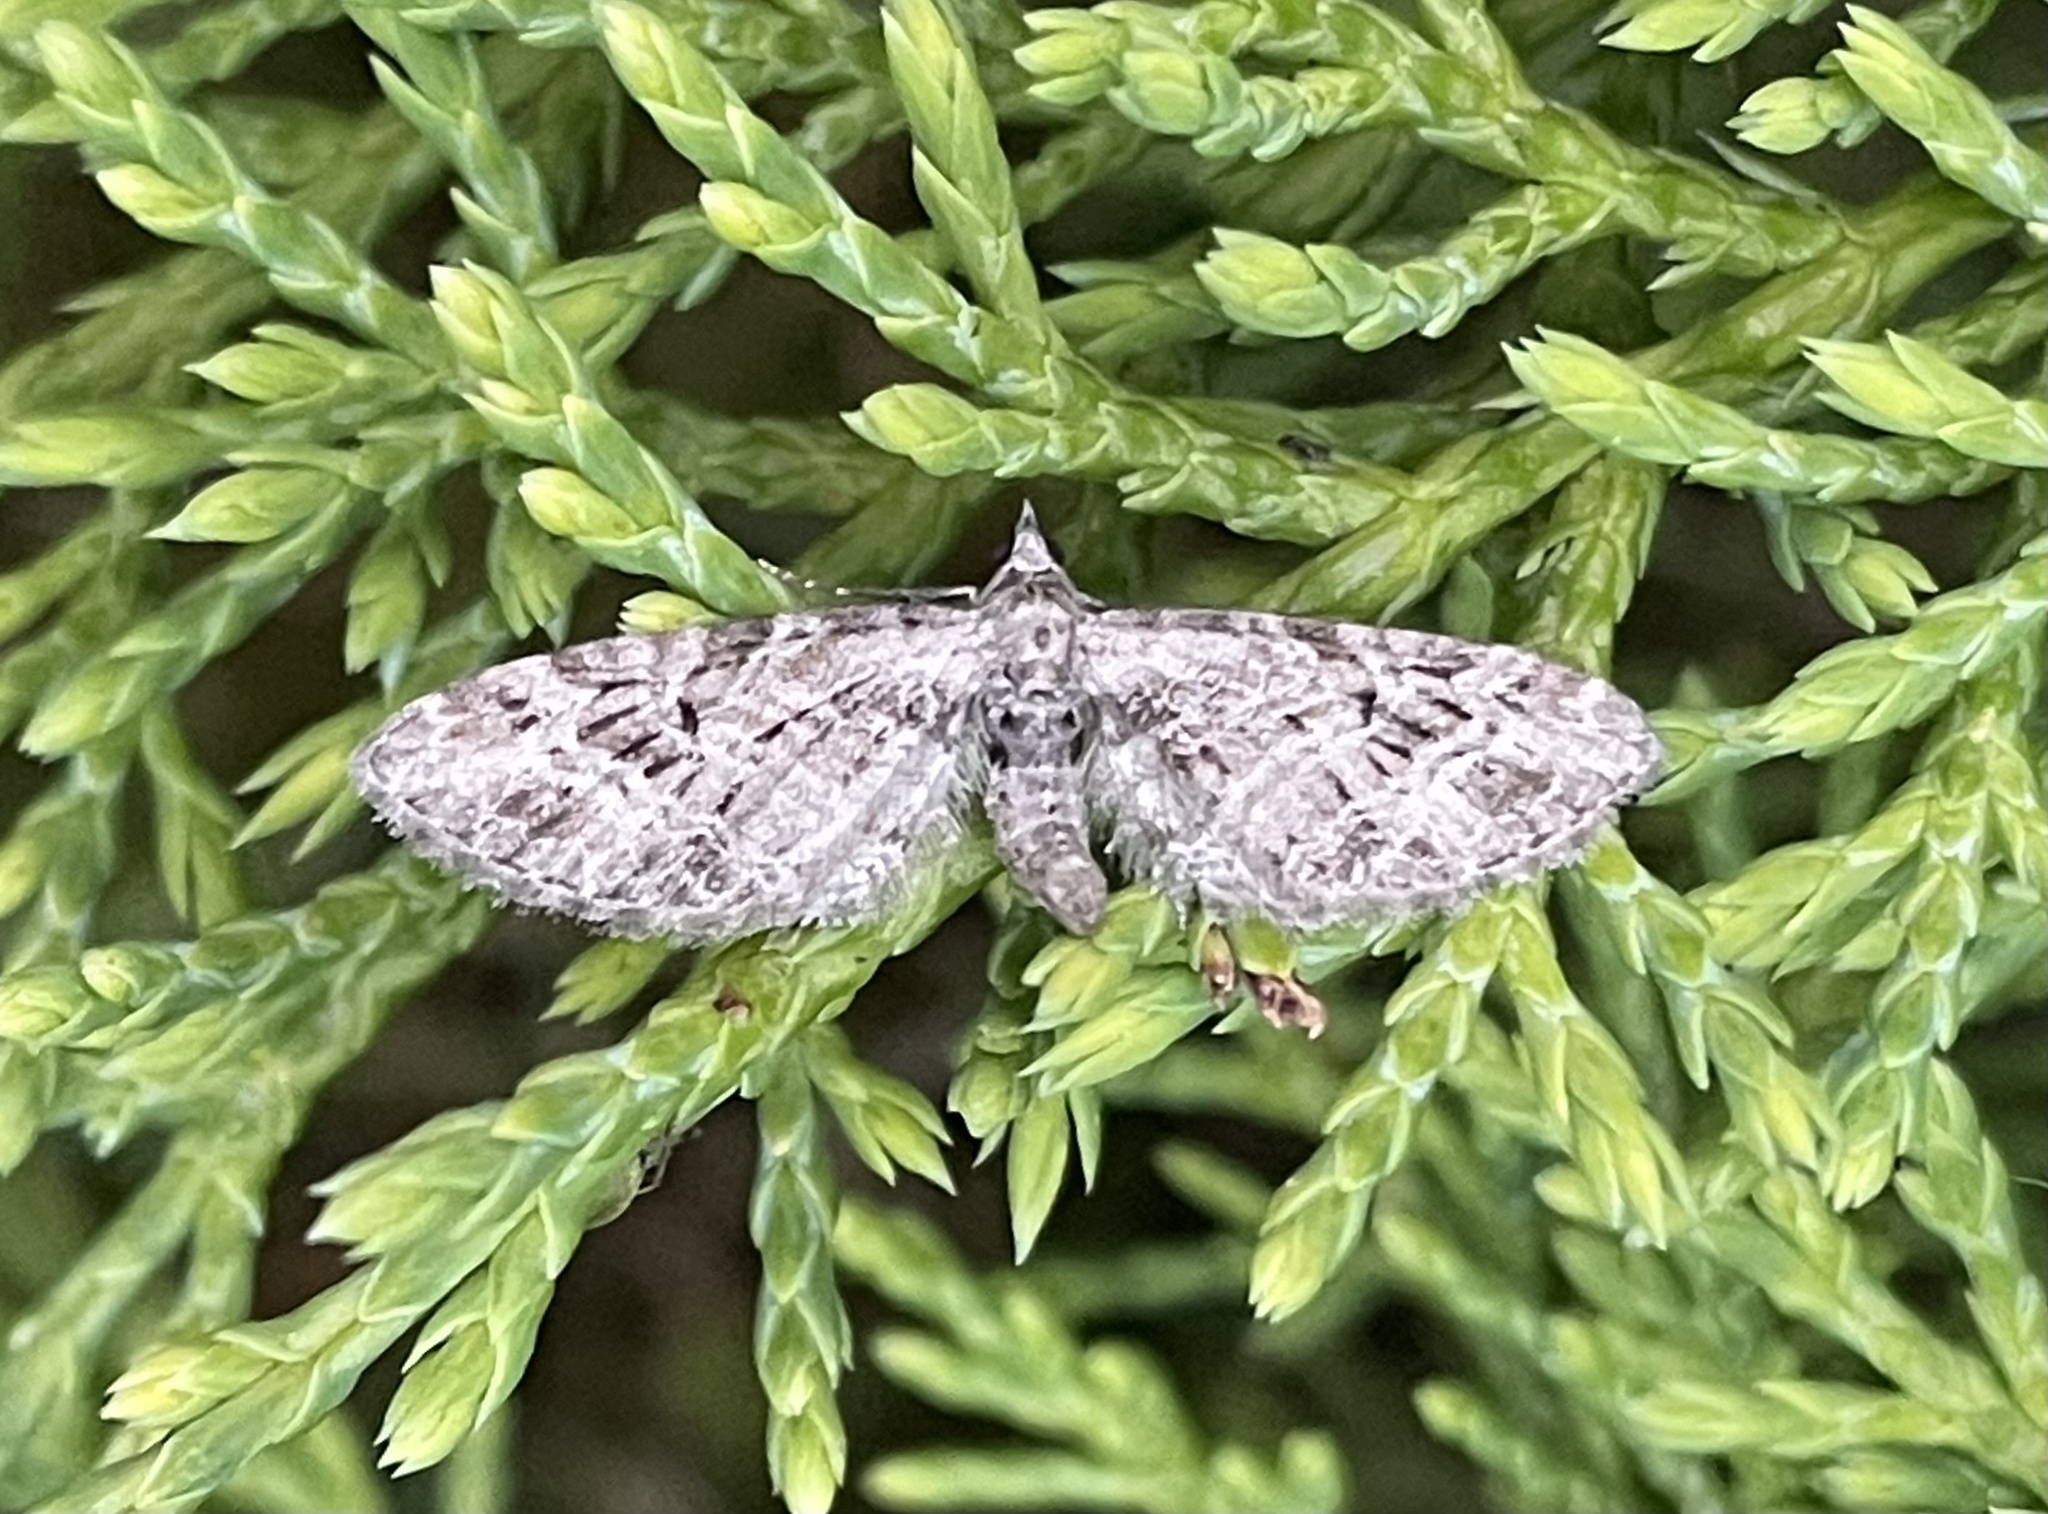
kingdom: Animalia
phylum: Arthropoda
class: Insecta
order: Lepidoptera
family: Geometridae
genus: Eupithecia
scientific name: Eupithecia abbreviata
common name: Brindled pug
